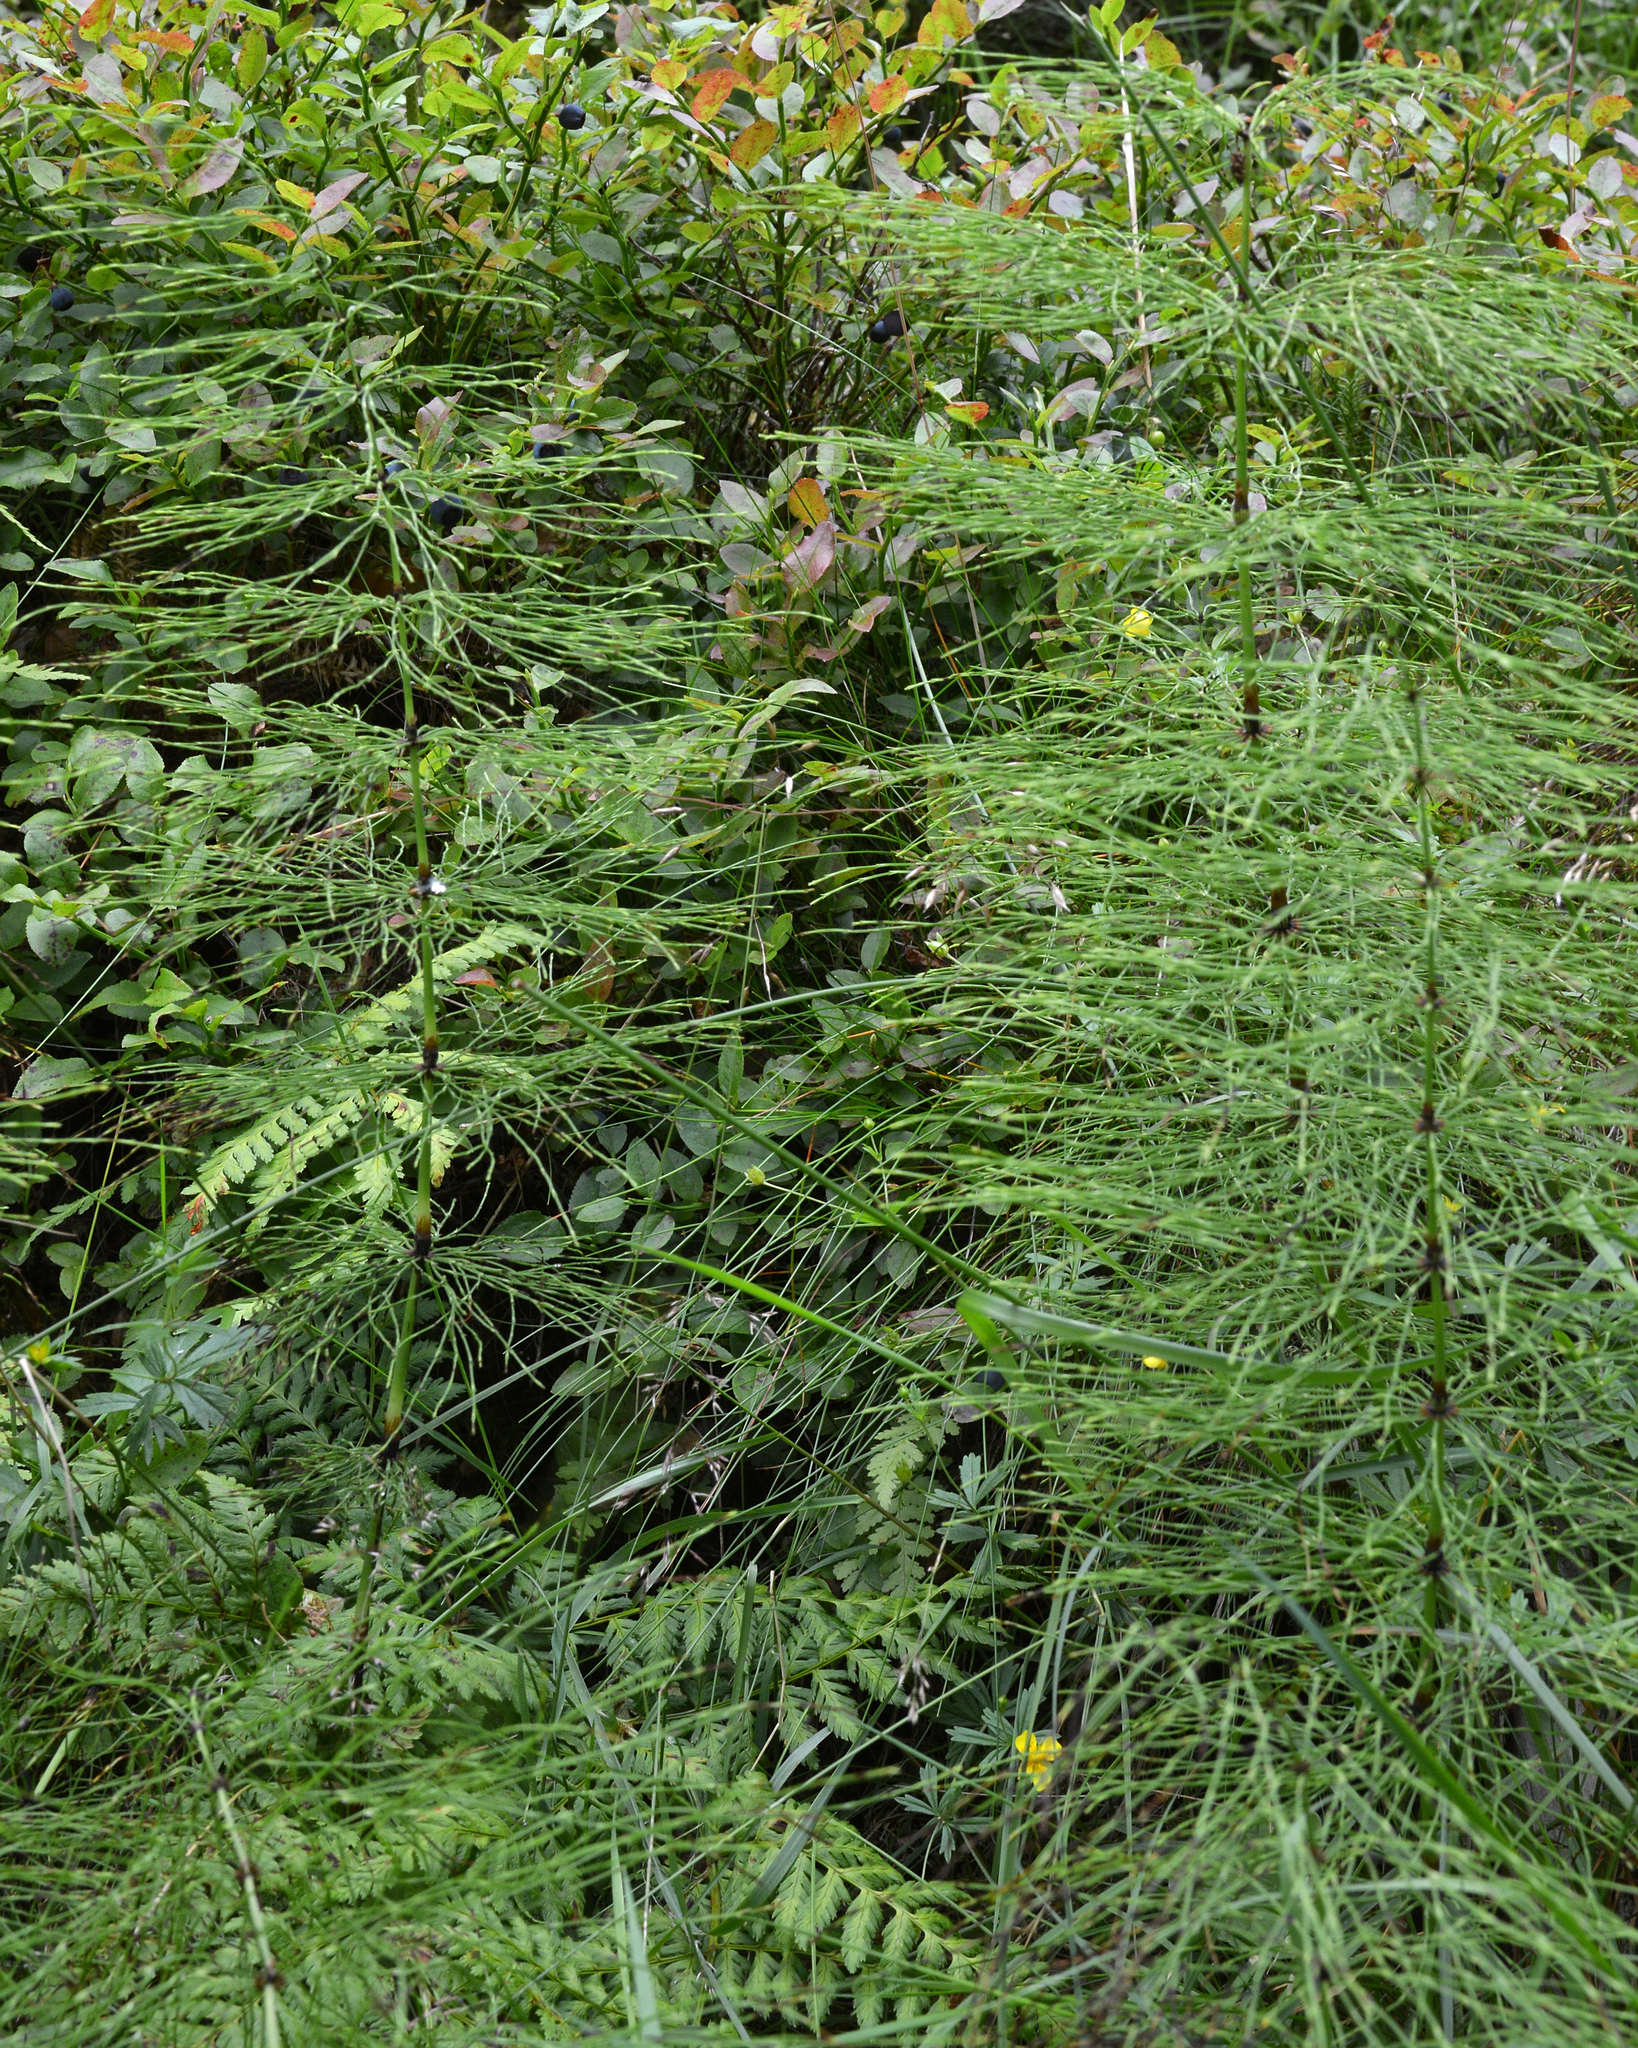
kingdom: Plantae
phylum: Tracheophyta
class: Polypodiopsida
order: Equisetales
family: Equisetaceae
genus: Equisetum
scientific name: Equisetum sylvaticum
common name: Wood horsetail
